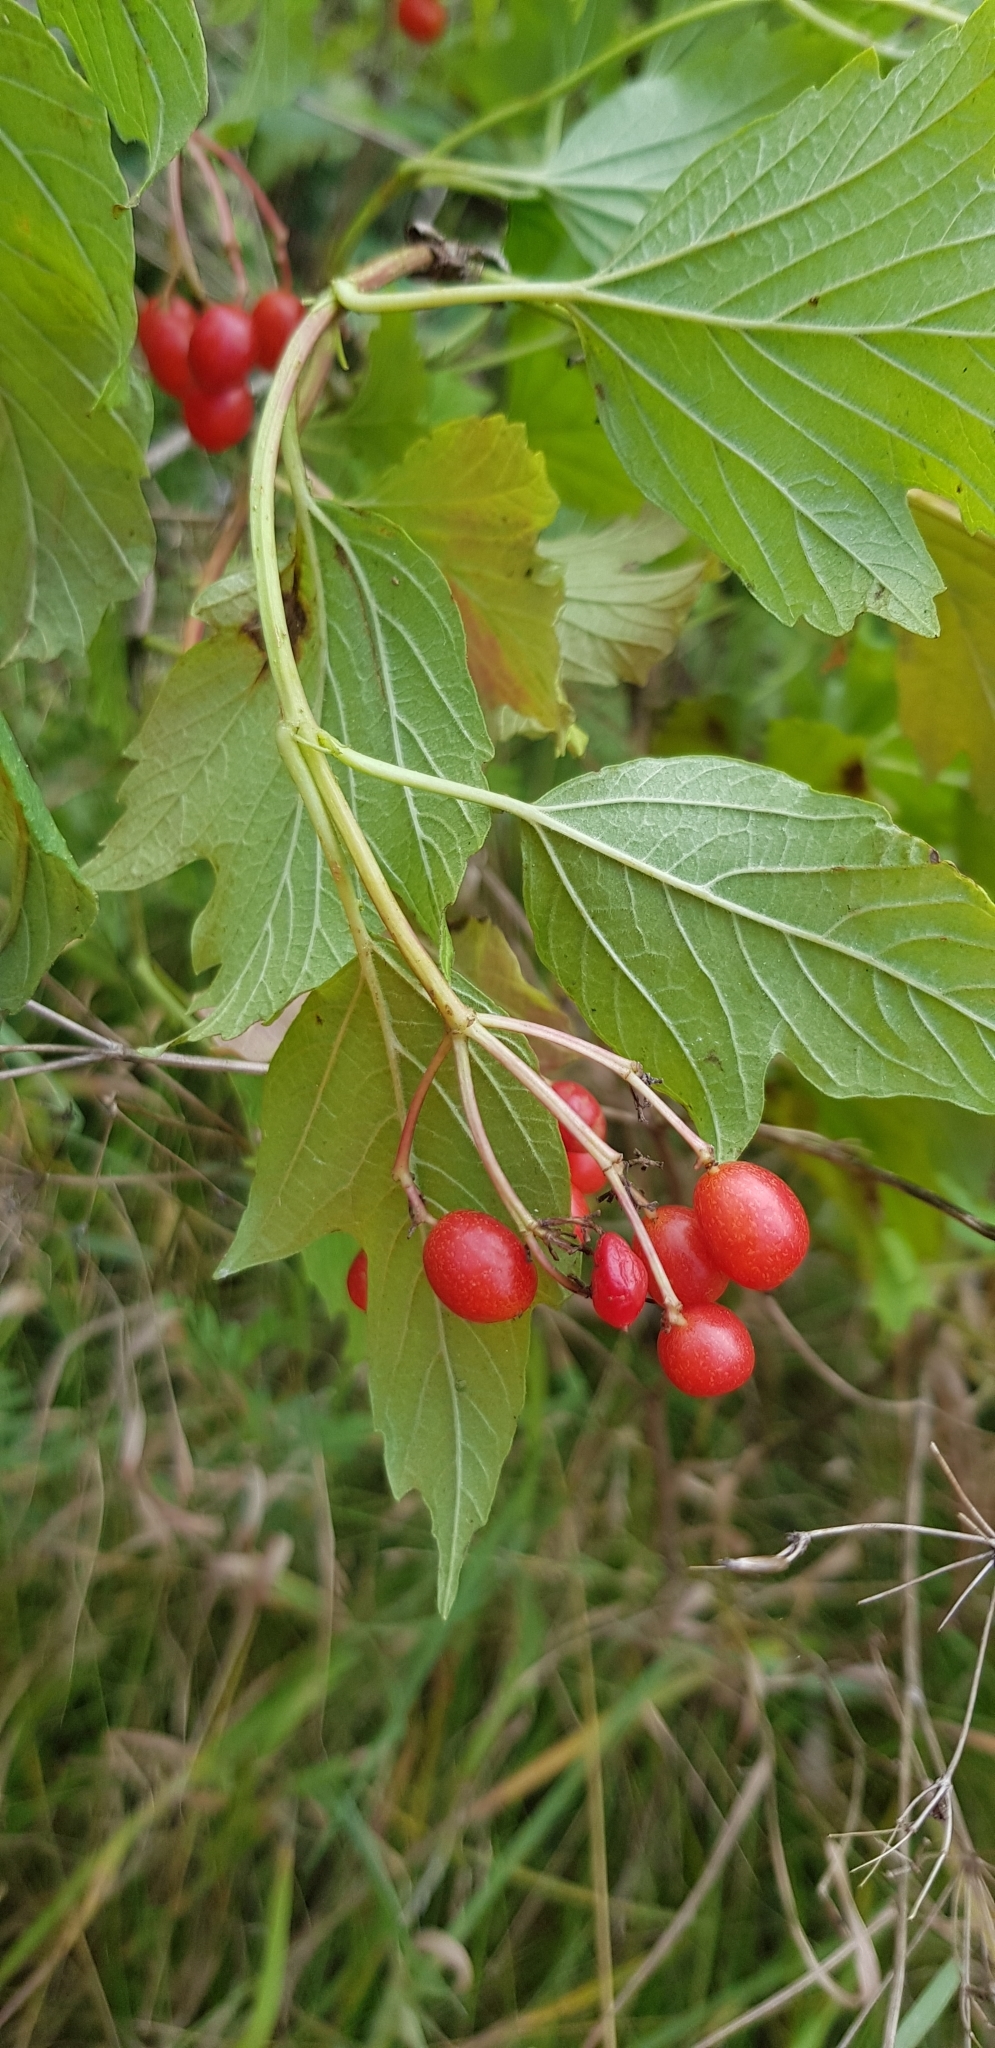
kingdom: Plantae
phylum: Tracheophyta
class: Magnoliopsida
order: Dipsacales
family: Viburnaceae
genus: Viburnum
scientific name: Viburnum opulus
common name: Guelder-rose
